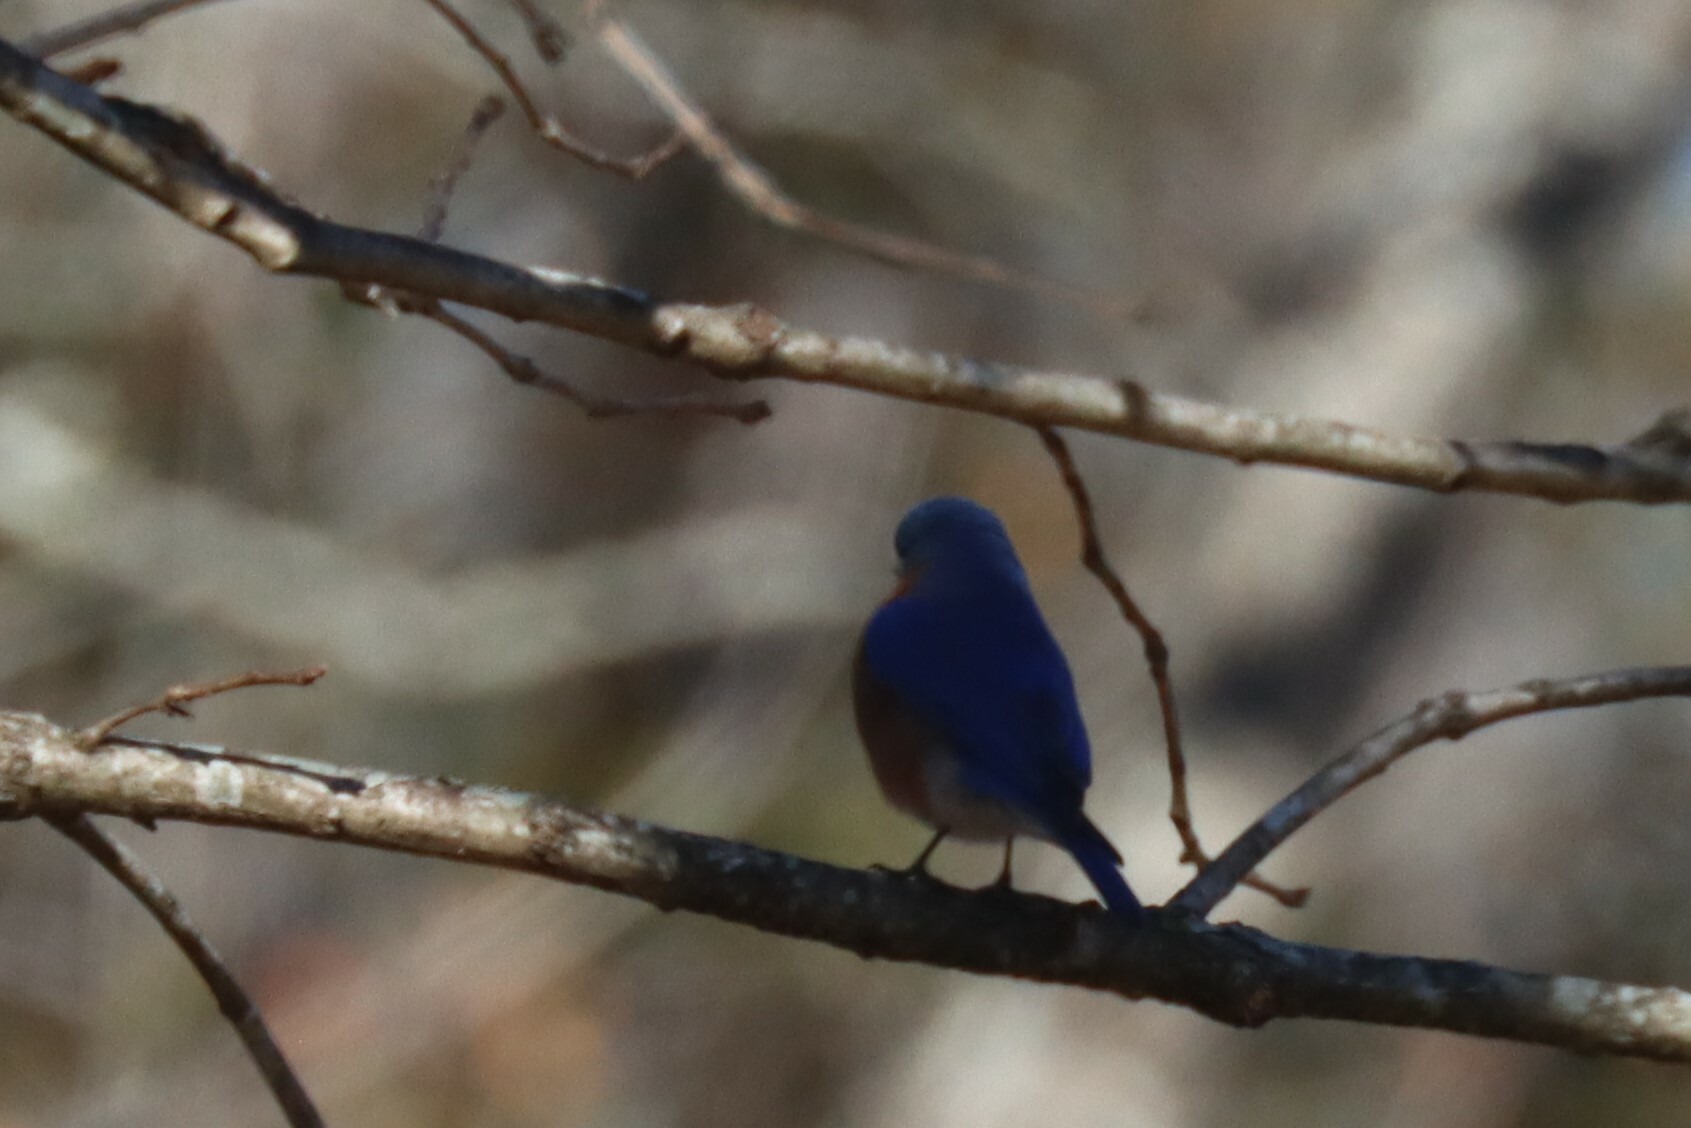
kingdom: Animalia
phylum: Chordata
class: Aves
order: Passeriformes
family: Turdidae
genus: Sialia
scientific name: Sialia sialis
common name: Eastern bluebird
